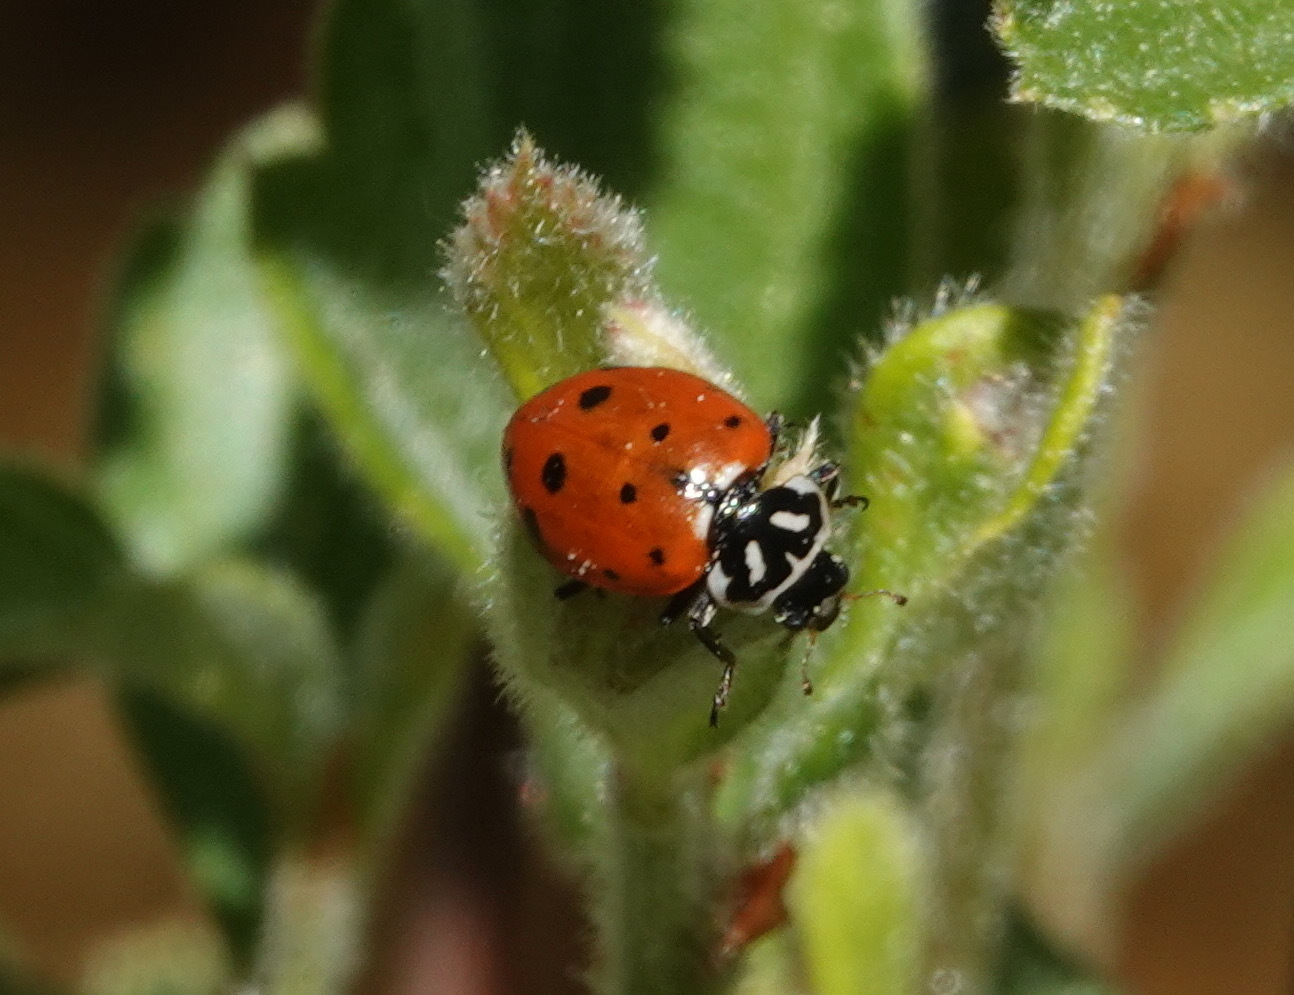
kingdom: Animalia
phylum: Arthropoda
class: Insecta
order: Coleoptera
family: Coccinellidae
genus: Hippodamia
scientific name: Hippodamia convergens
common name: Convergent lady beetle
